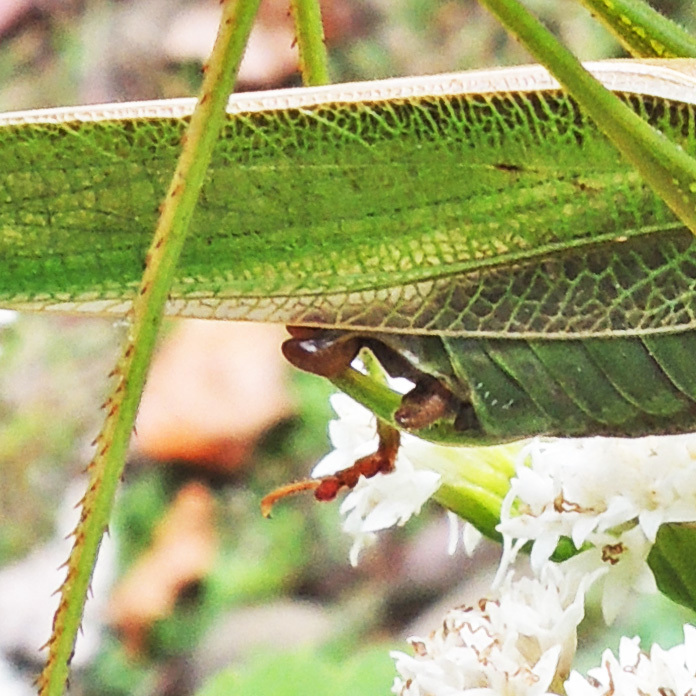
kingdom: Animalia
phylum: Arthropoda
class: Insecta
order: Orthoptera
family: Tettigoniidae
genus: Scudderia
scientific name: Scudderia fasciata
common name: Treetop bush katydid
